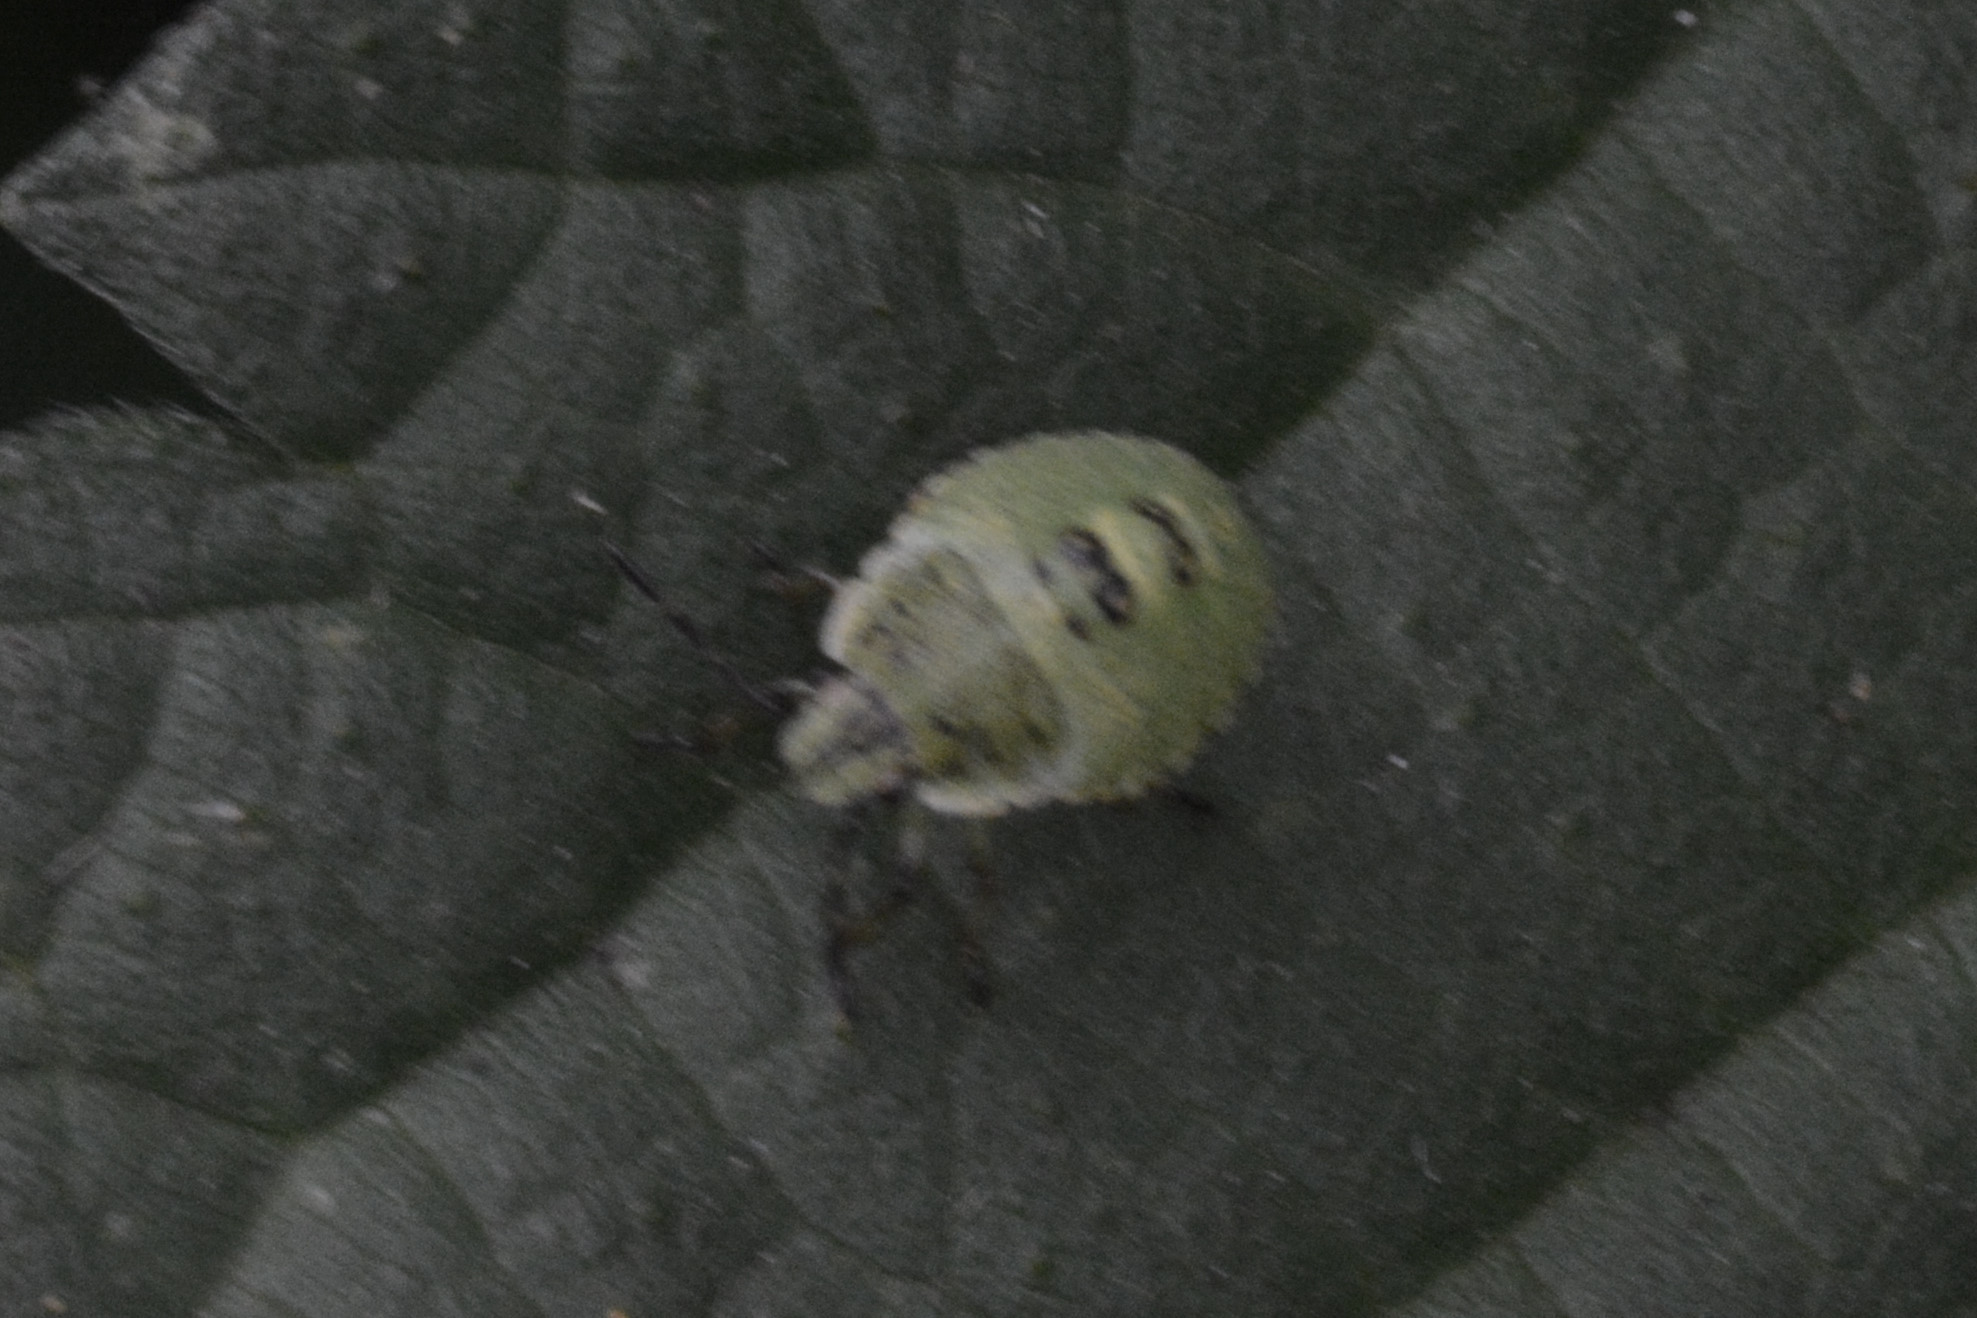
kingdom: Animalia
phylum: Arthropoda
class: Insecta
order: Hemiptera
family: Pentatomidae
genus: Palomena
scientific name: Palomena prasina
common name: Green shieldbug
